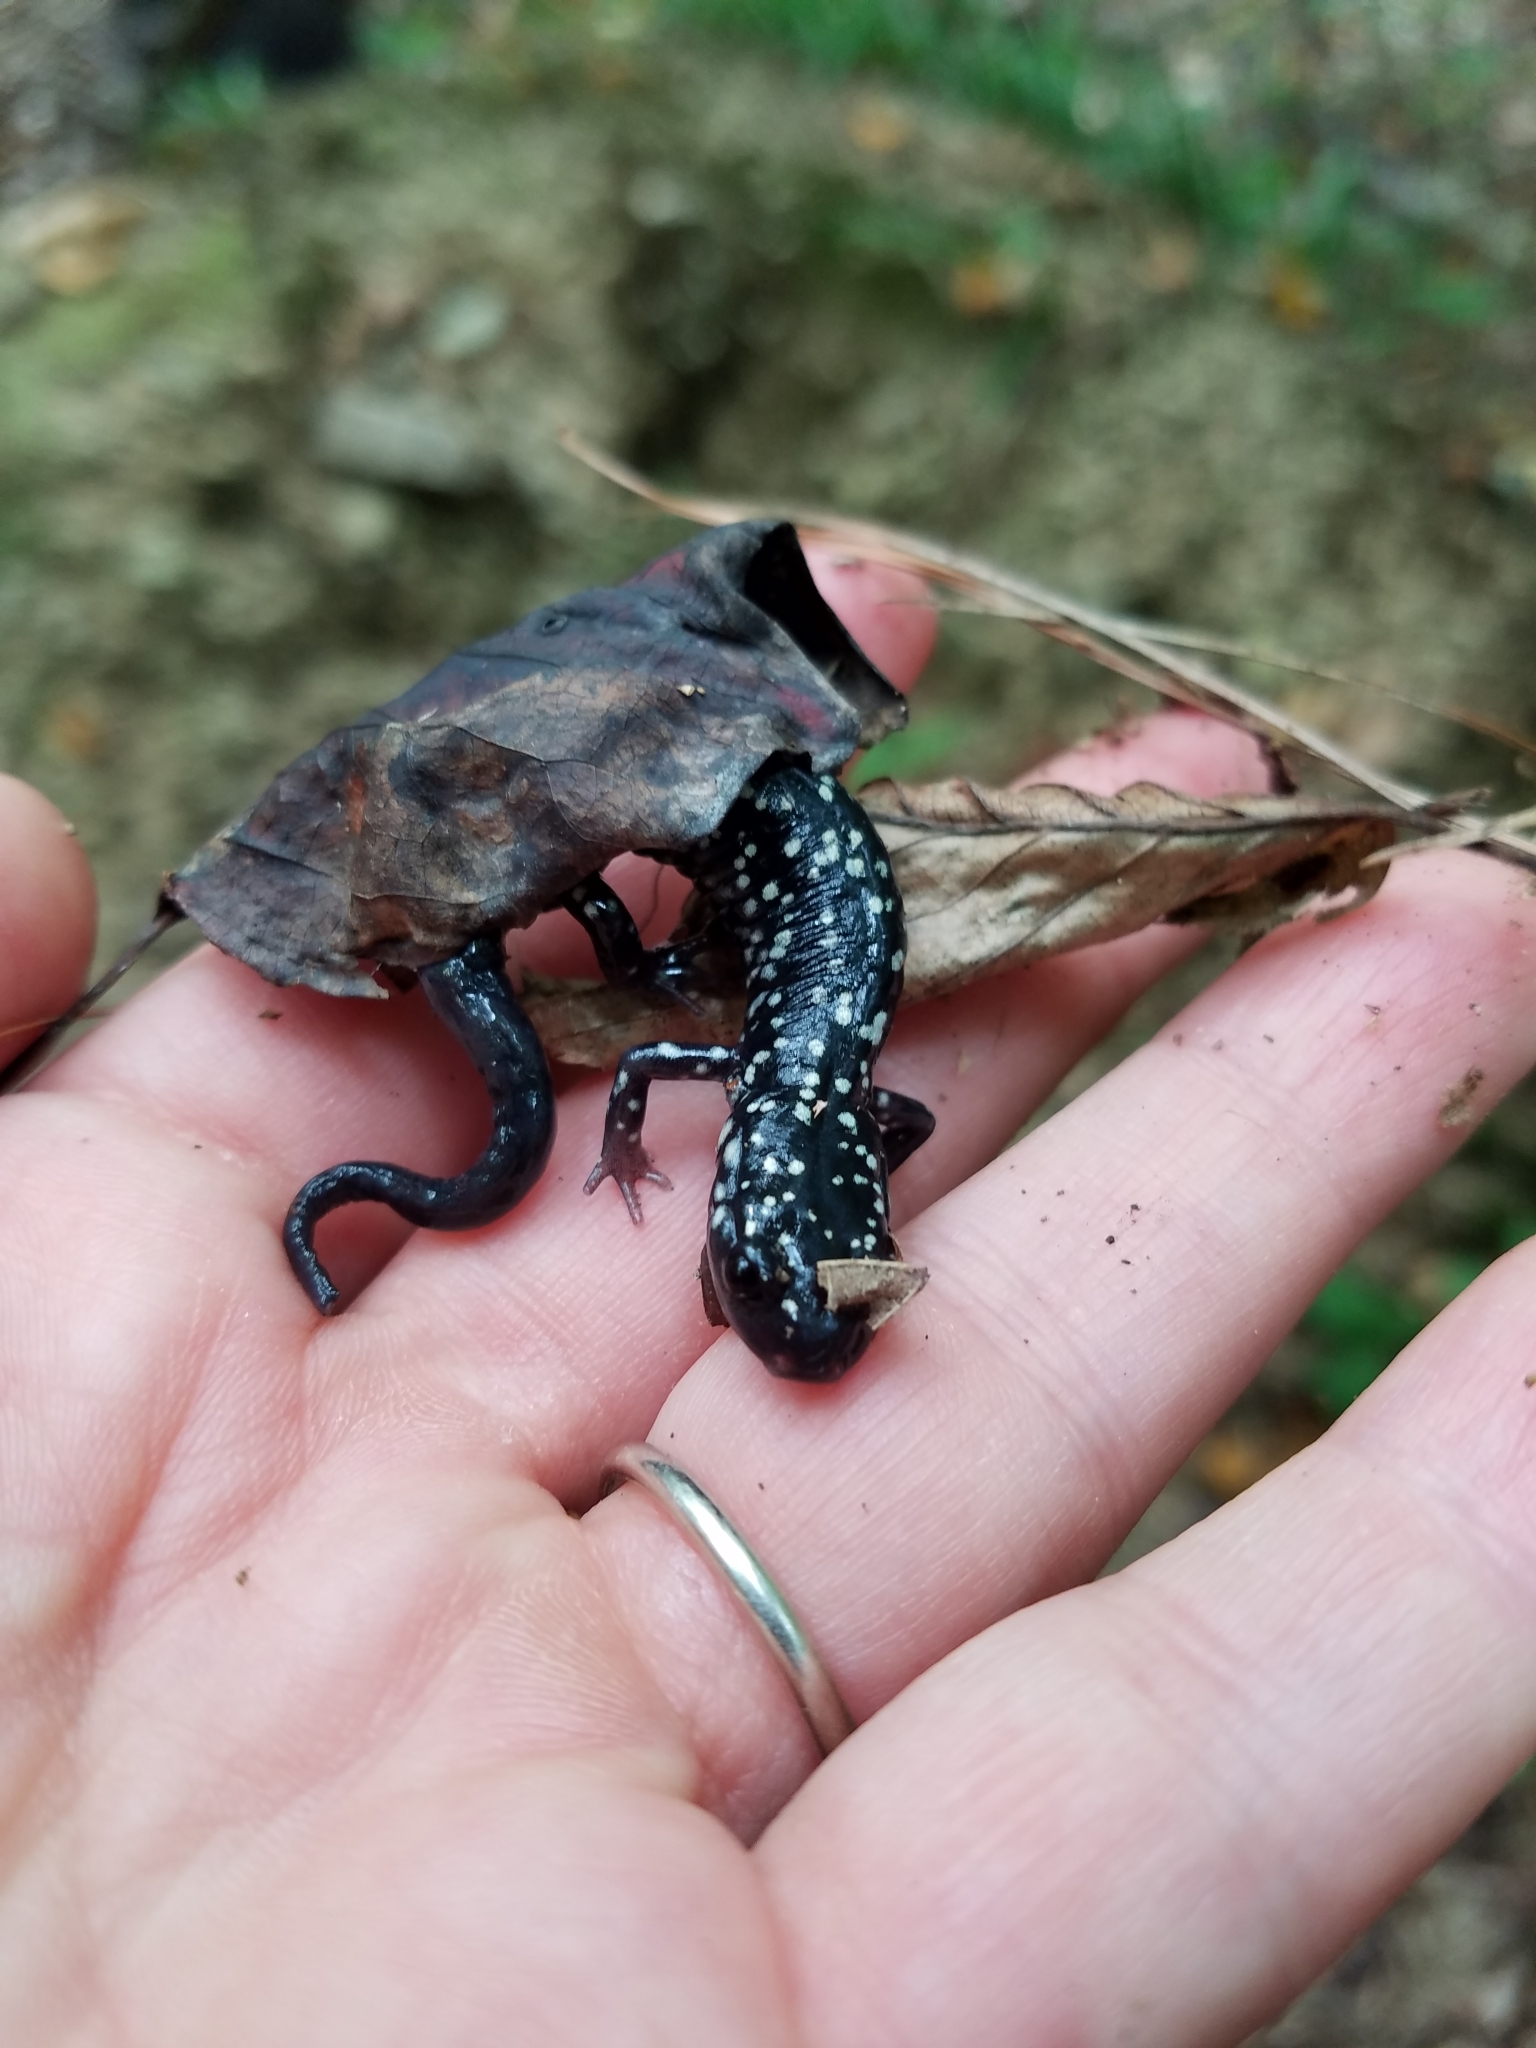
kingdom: Animalia
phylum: Chordata
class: Amphibia
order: Caudata
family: Plethodontidae
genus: Plethodon
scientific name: Plethodon glutinosus
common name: Northern slimy salamander
